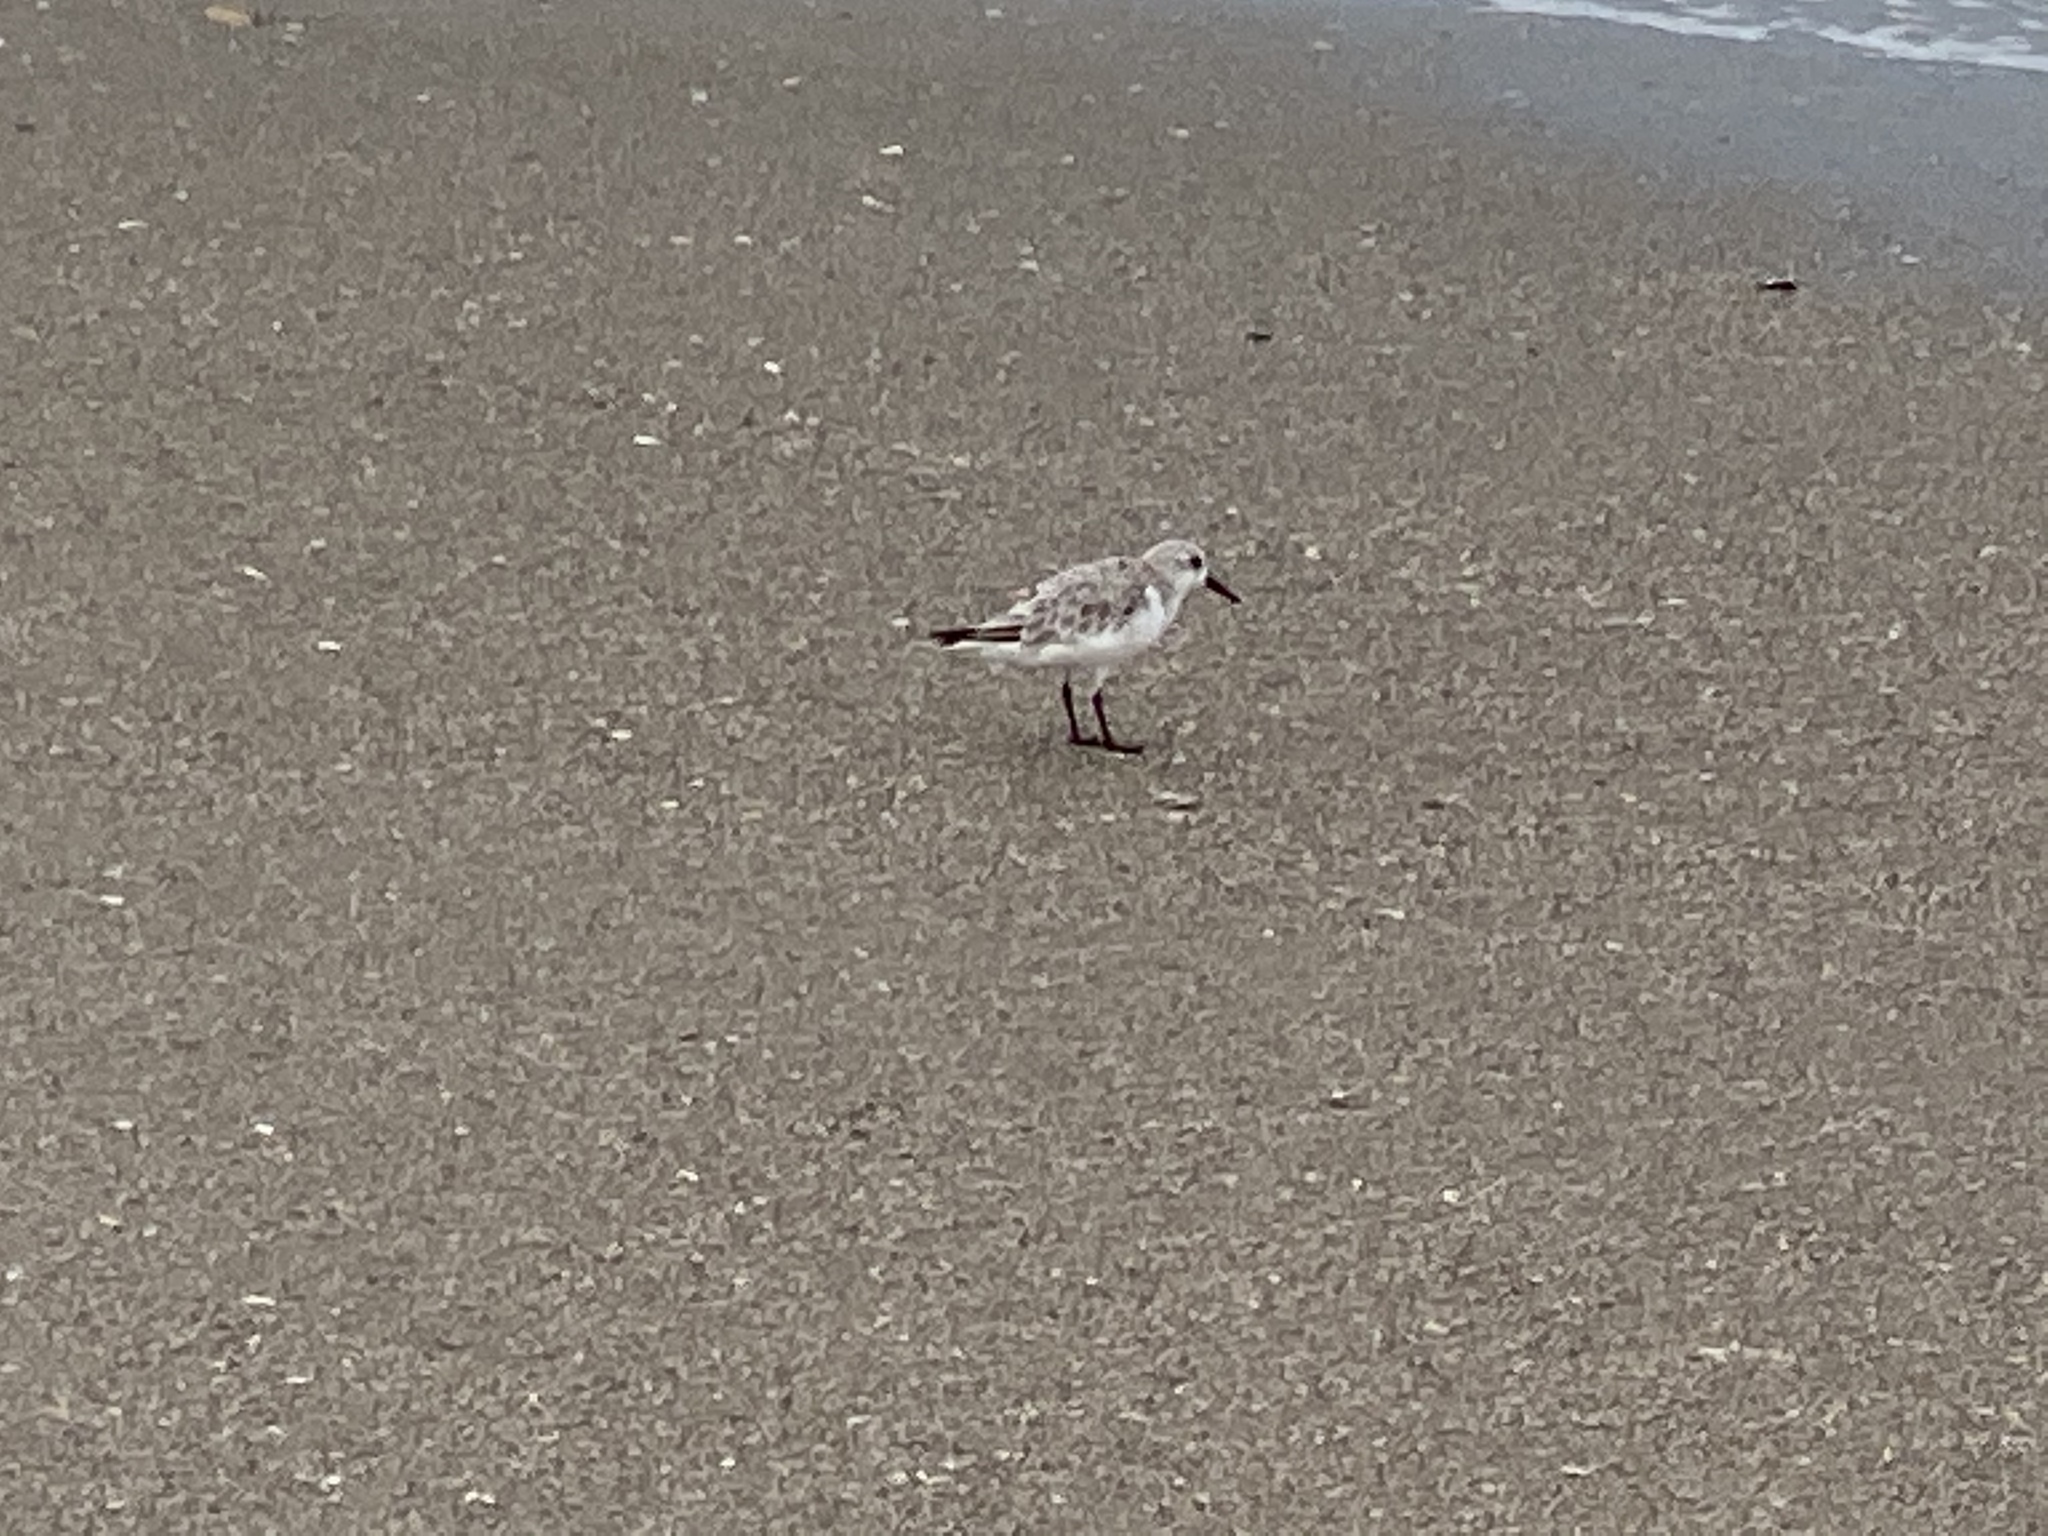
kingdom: Animalia
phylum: Chordata
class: Aves
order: Charadriiformes
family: Scolopacidae
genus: Calidris
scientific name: Calidris alba
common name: Sanderling
